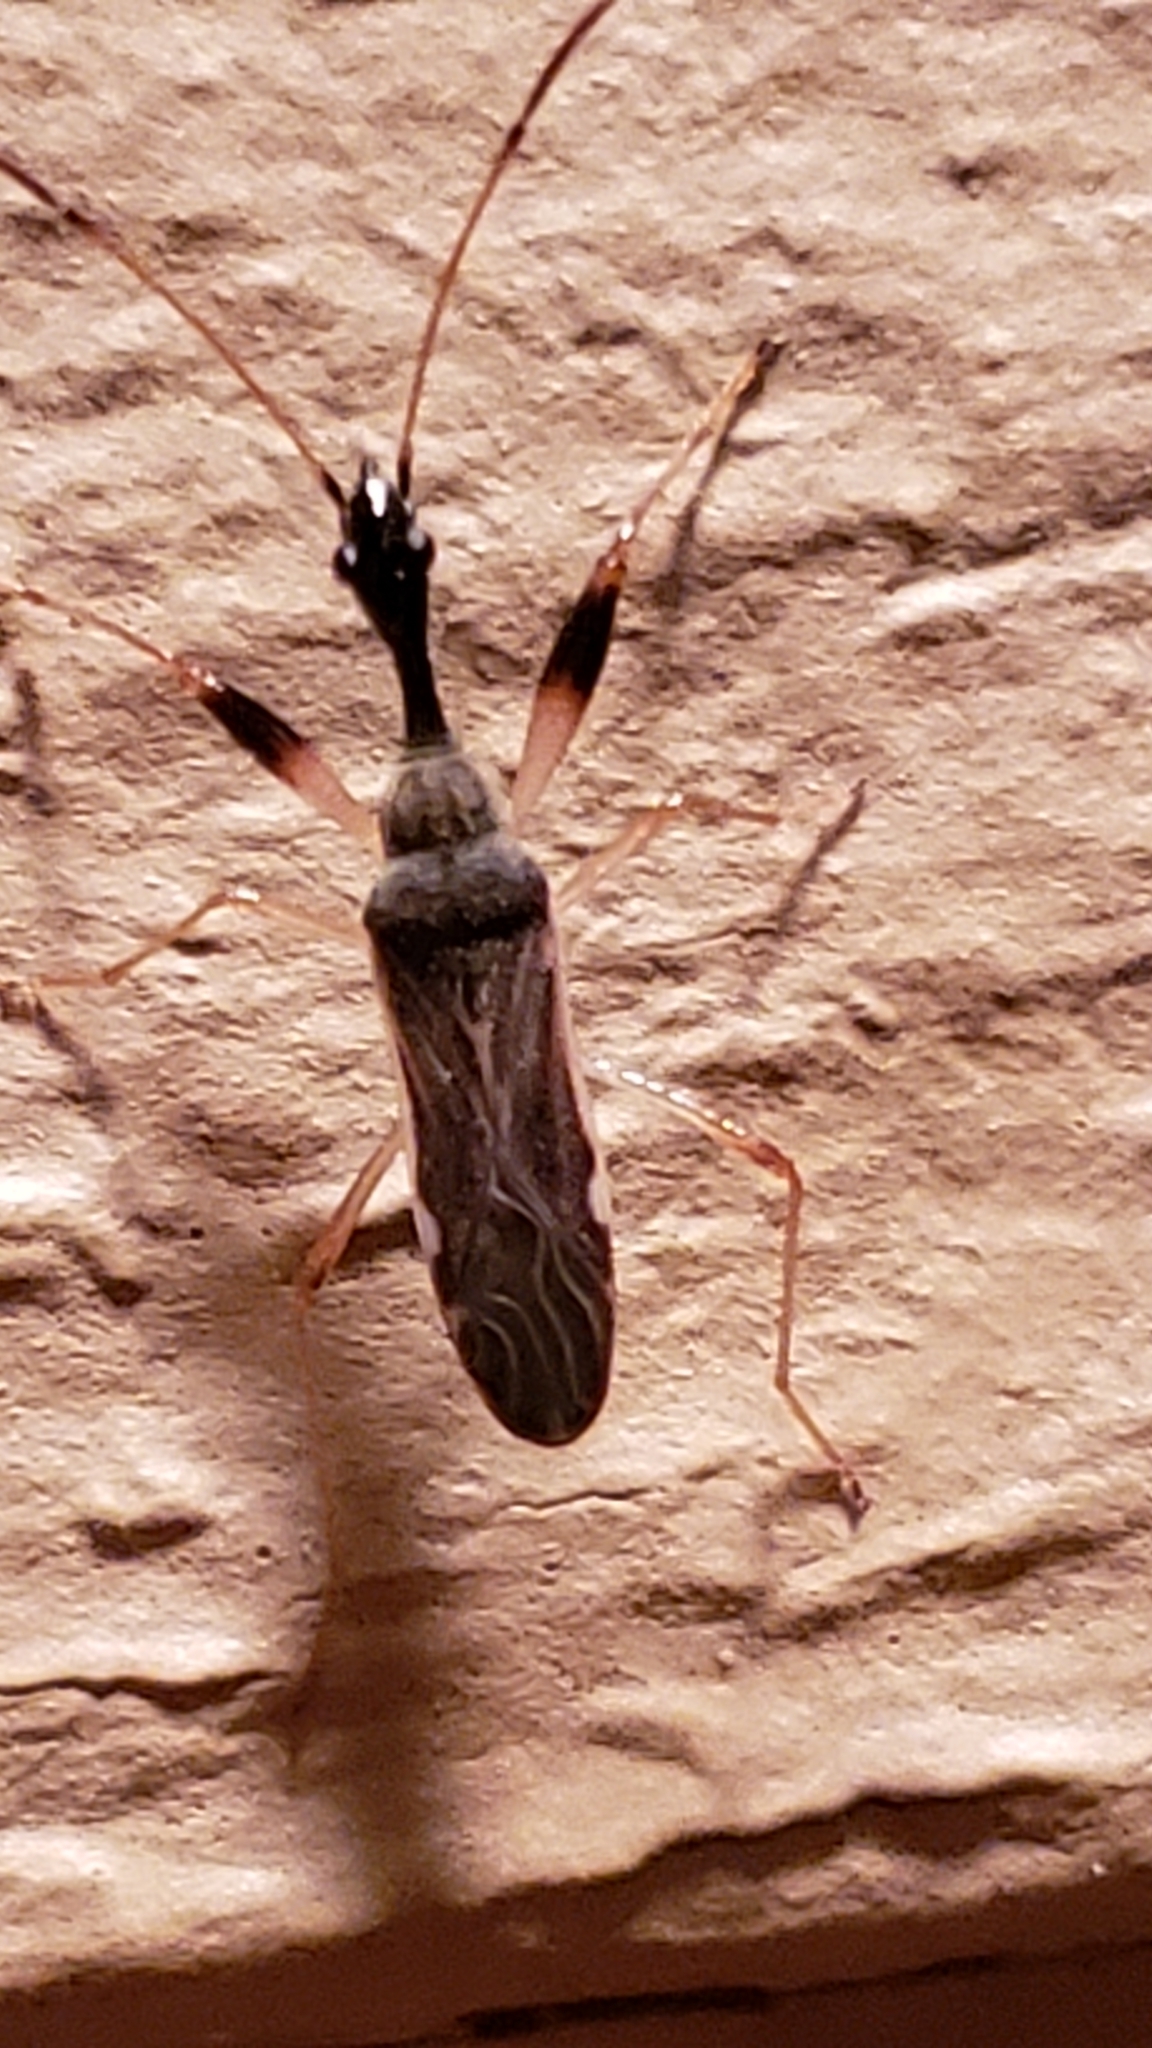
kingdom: Animalia
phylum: Arthropoda
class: Insecta
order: Hemiptera
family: Rhyparochromidae
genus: Myodocha
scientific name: Myodocha serripes
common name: Long-necked seed bug
